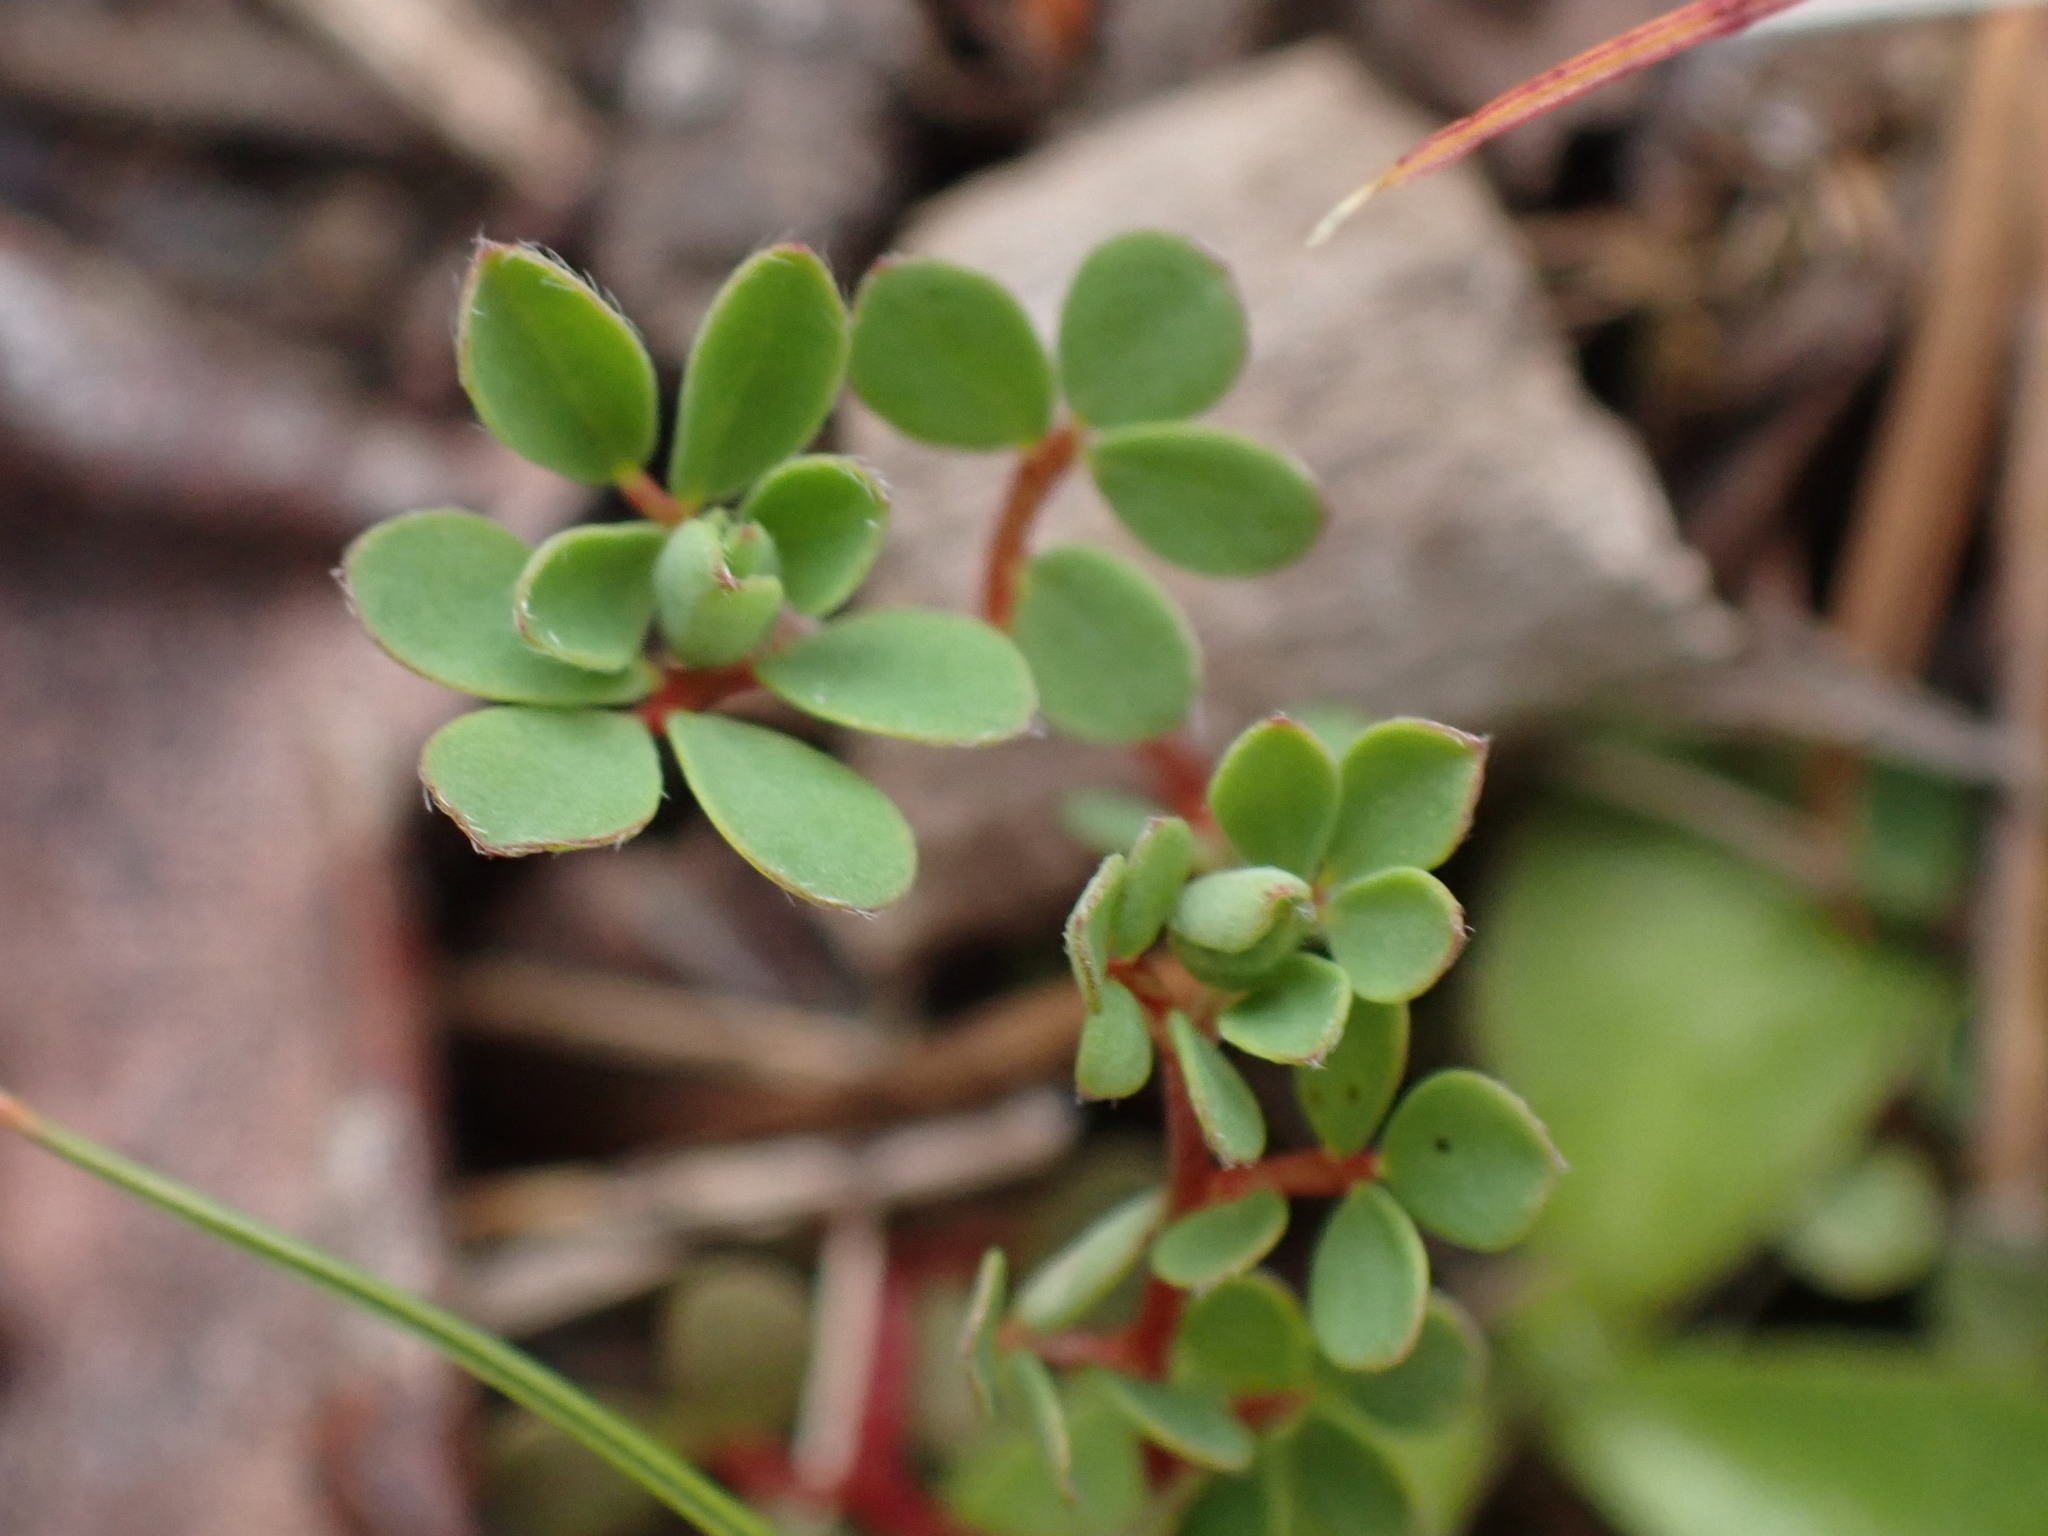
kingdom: Plantae
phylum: Tracheophyta
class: Magnoliopsida
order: Fabales
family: Fabaceae
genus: Acmispon
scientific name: Acmispon parviflorus
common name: Desert deer-vetch
